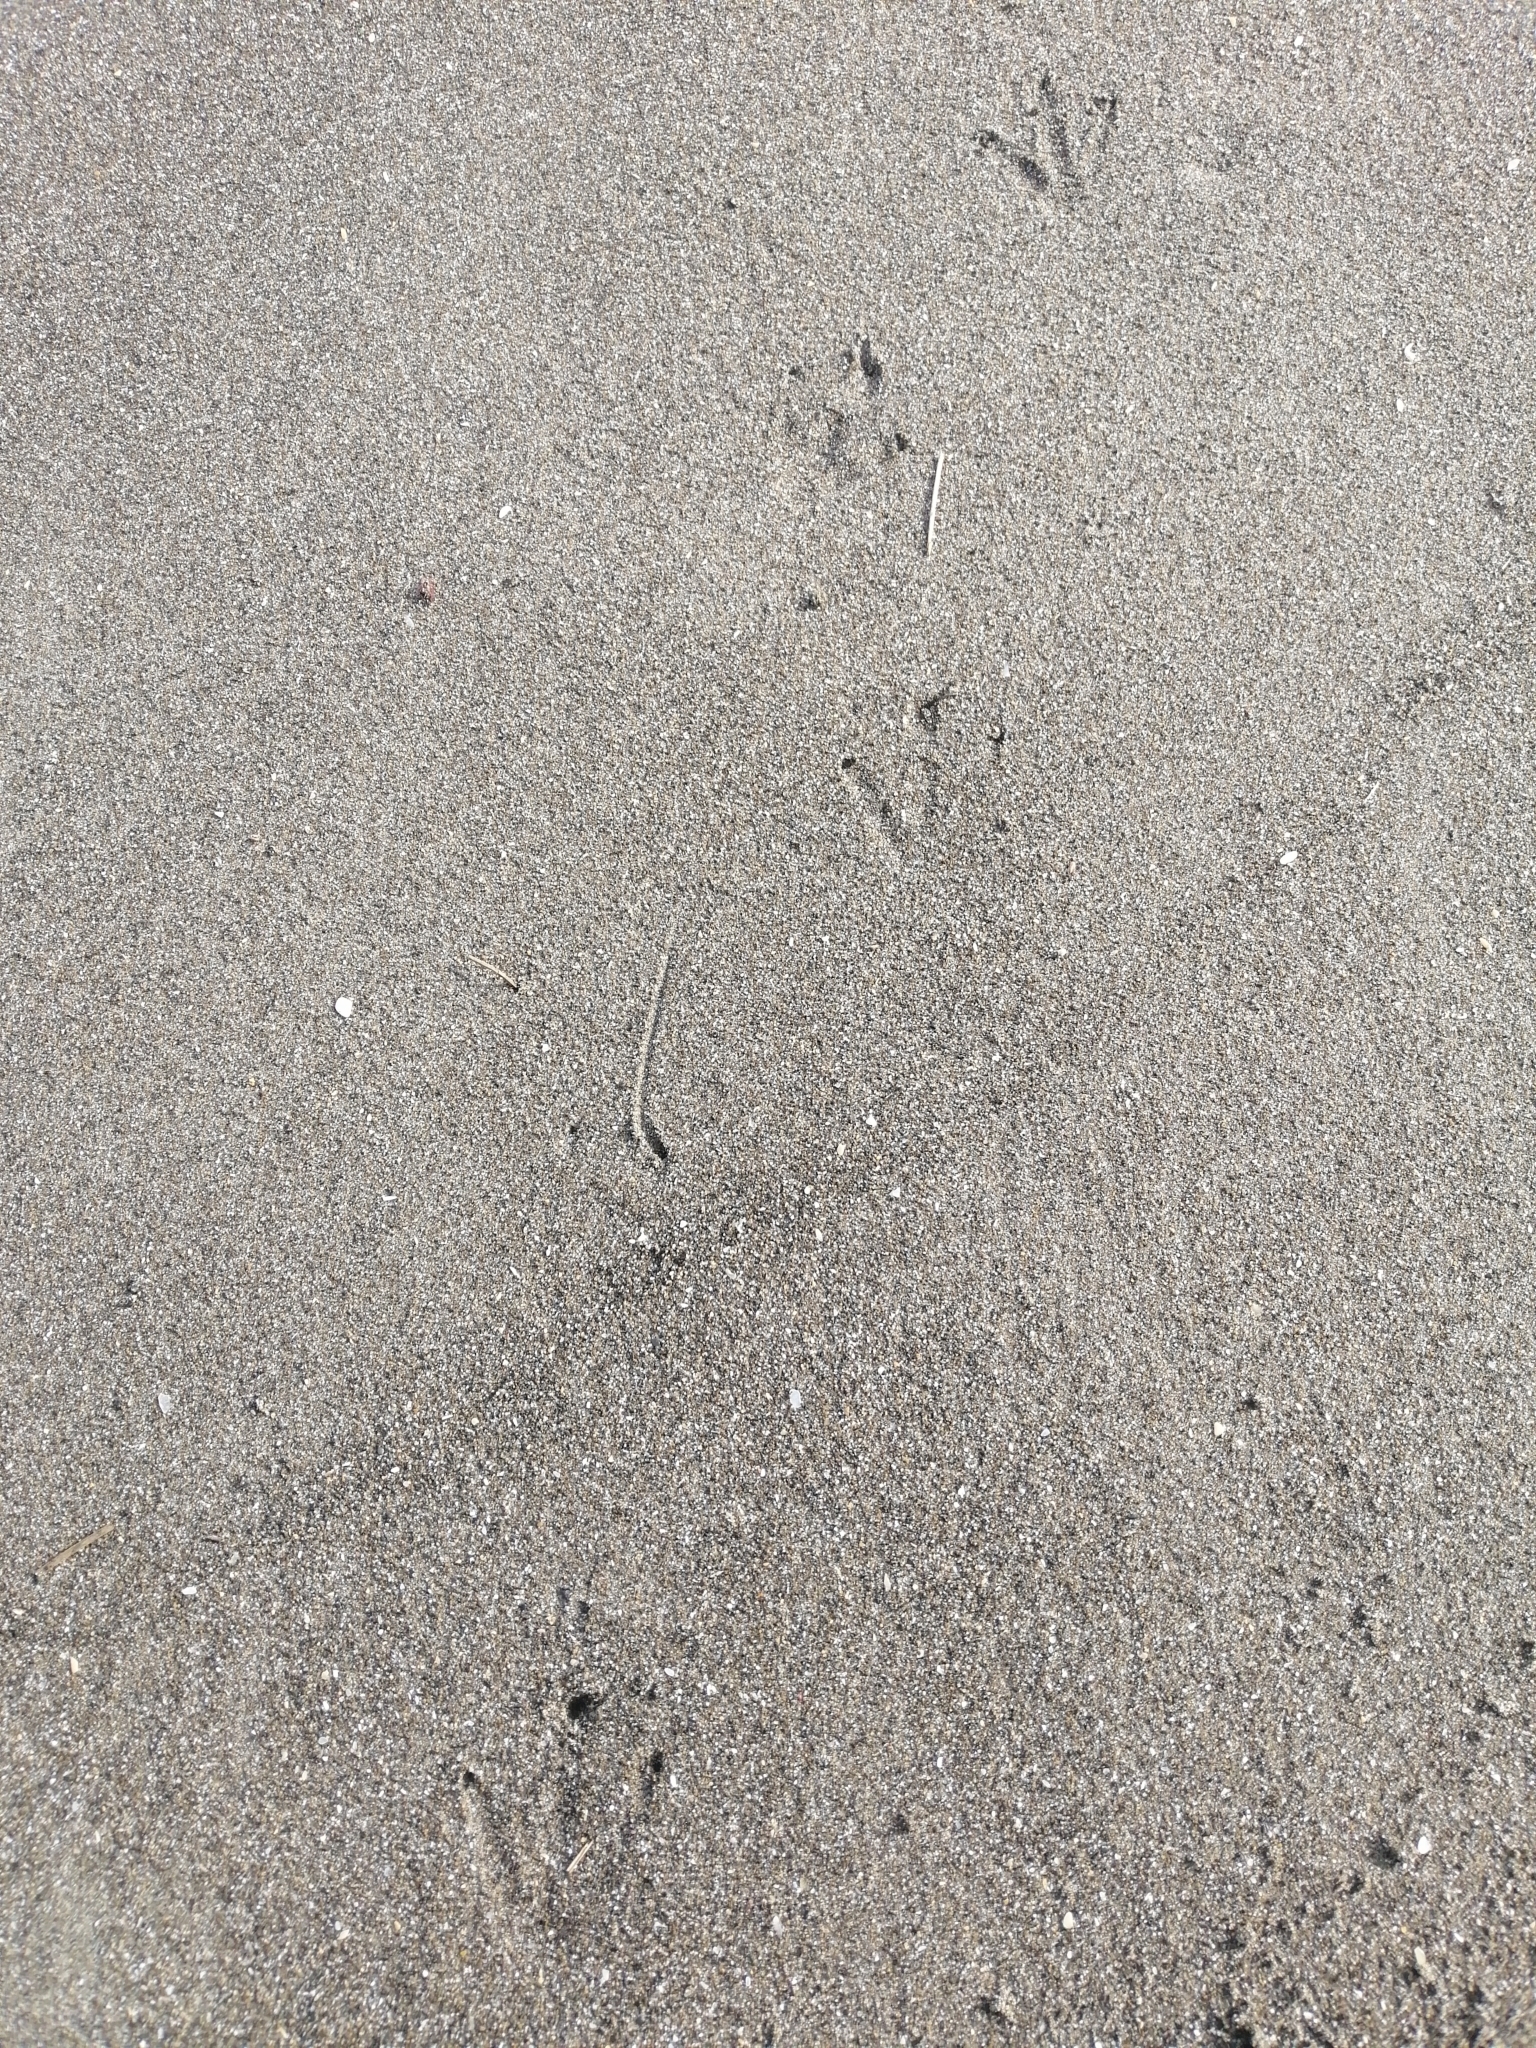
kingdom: Animalia
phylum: Chordata
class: Aves
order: Sphenisciformes
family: Spheniscidae
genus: Eudyptula
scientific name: Eudyptula minor
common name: Little penguin
